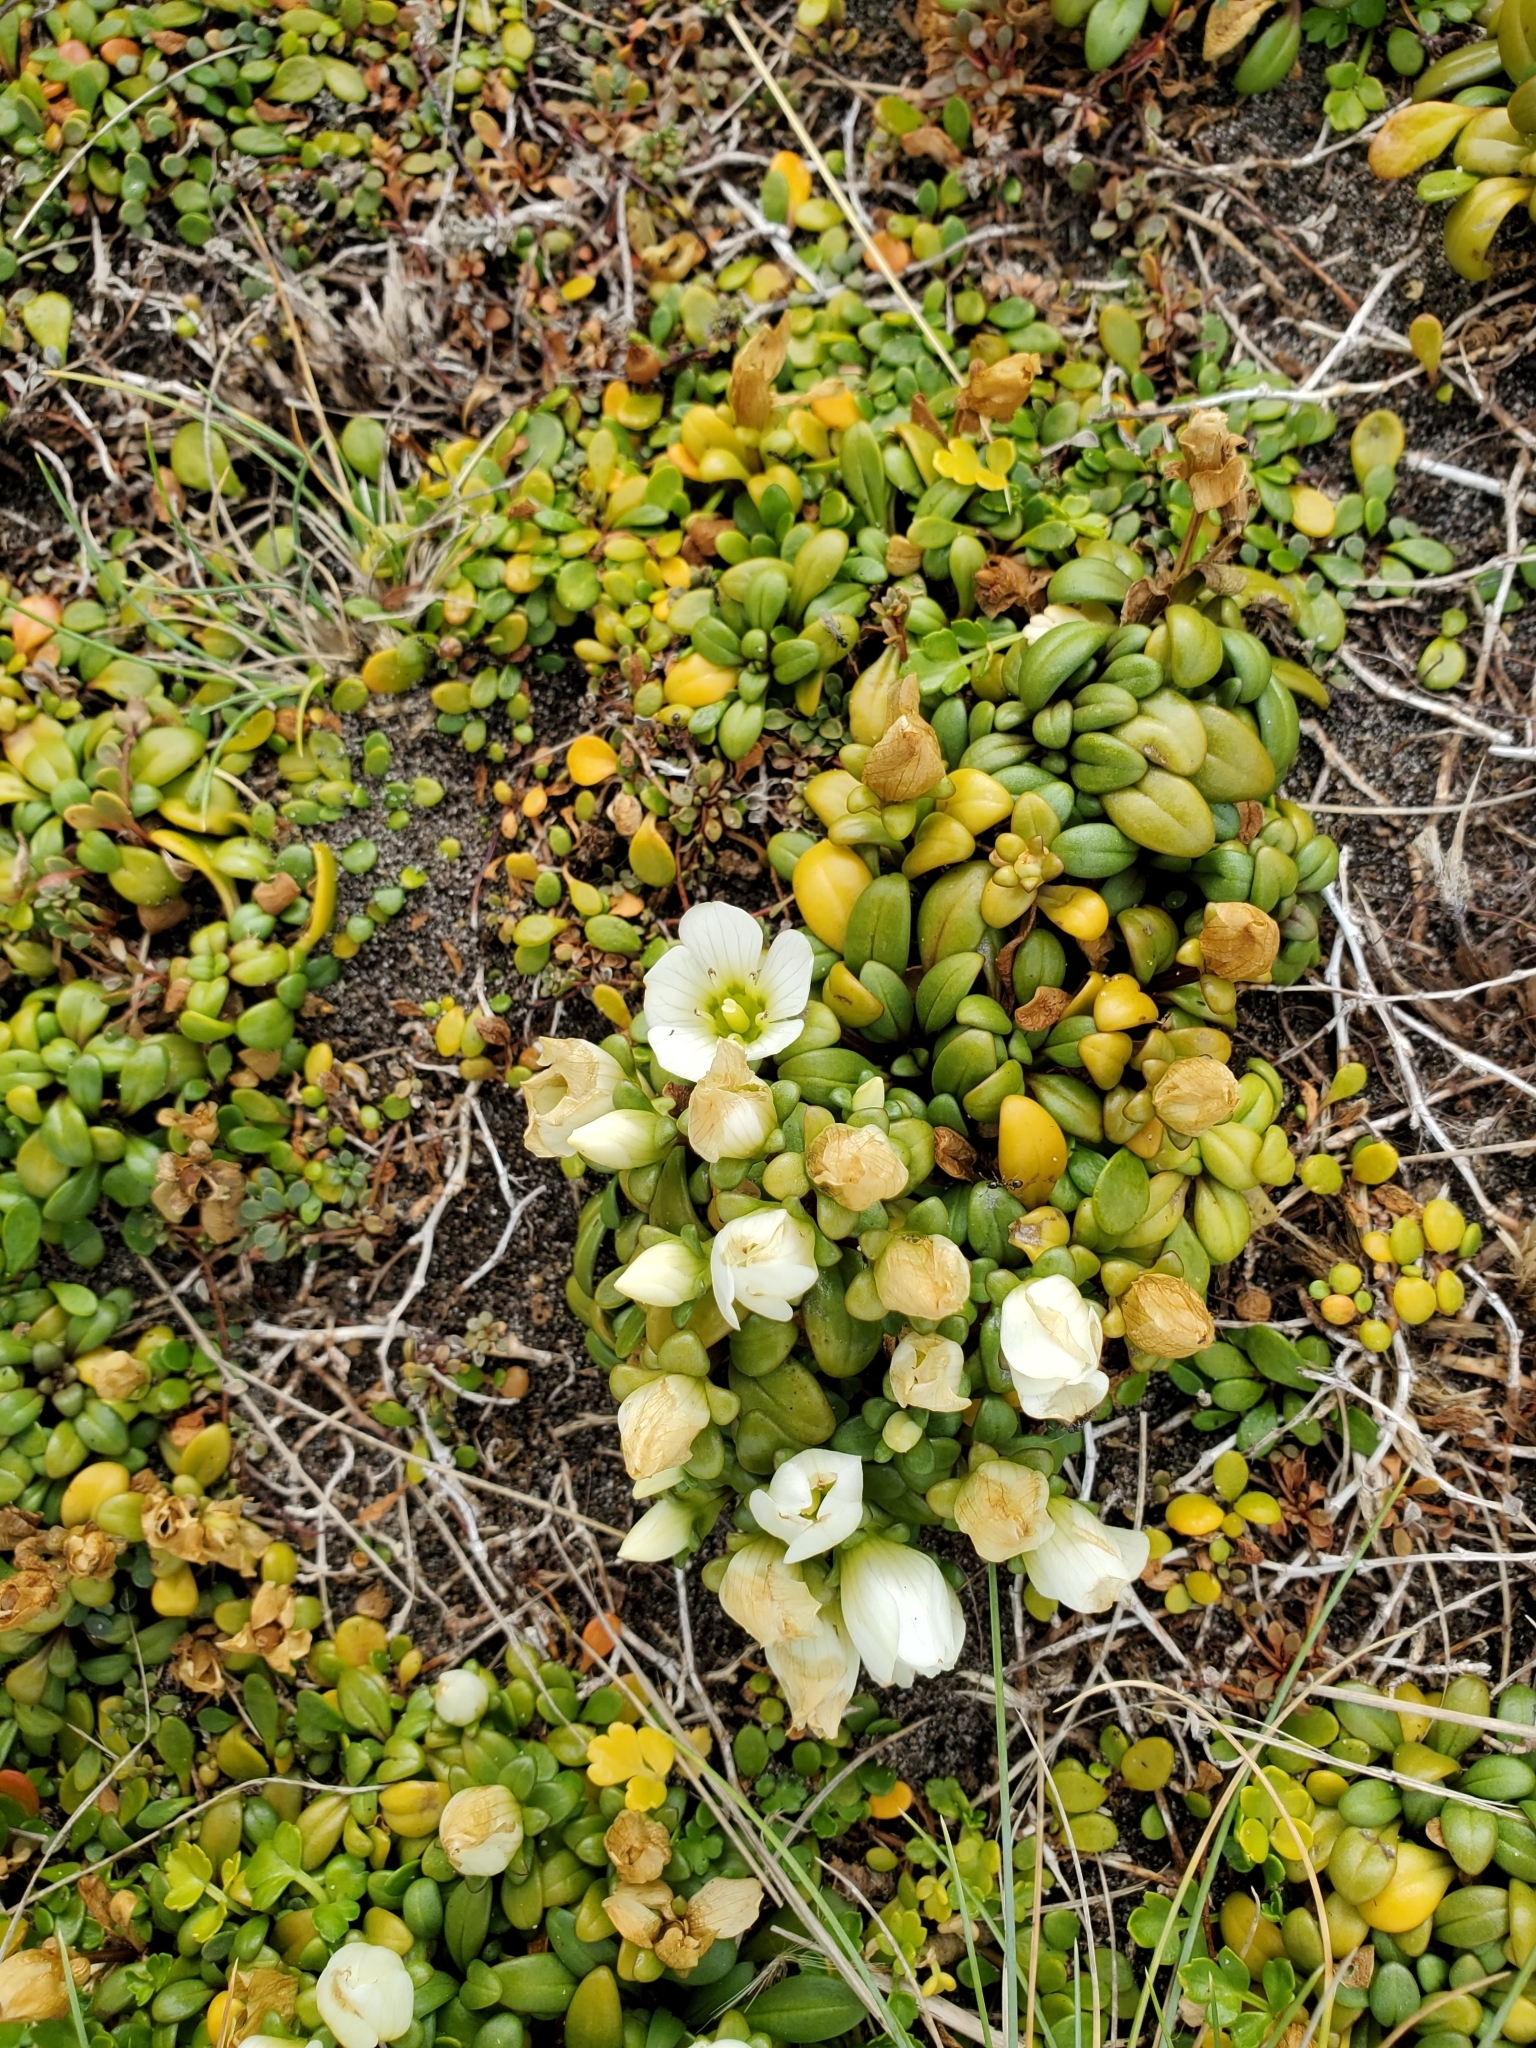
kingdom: Plantae
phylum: Tracheophyta
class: Magnoliopsida
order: Gentianales
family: Gentianaceae
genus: Gentianella
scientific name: Gentianella saxosa
